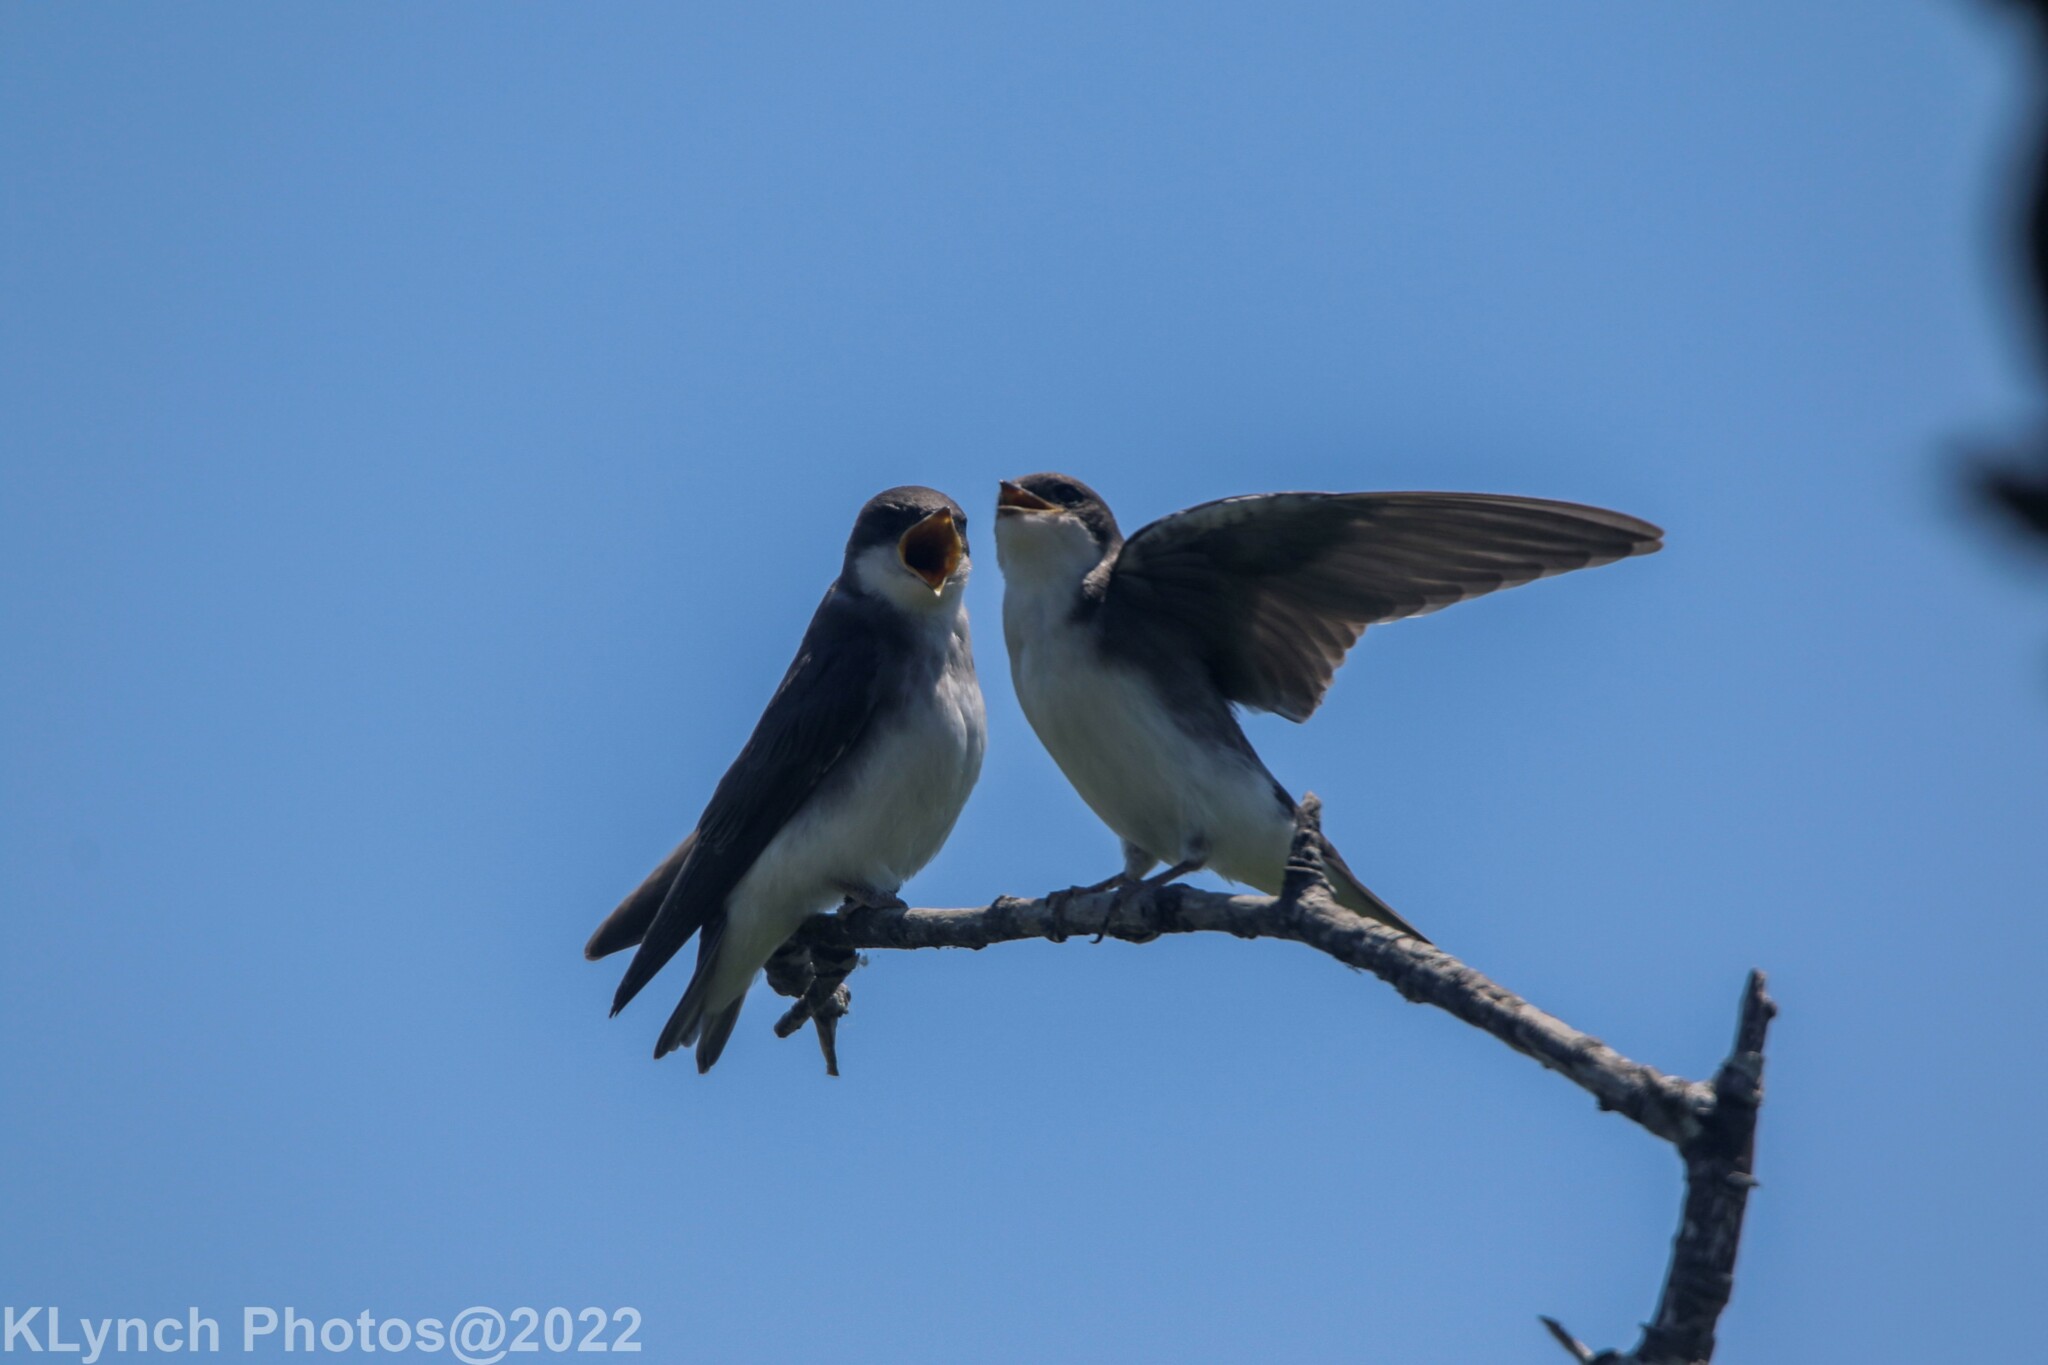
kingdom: Animalia
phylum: Chordata
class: Aves
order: Passeriformes
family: Hirundinidae
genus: Tachycineta
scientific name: Tachycineta bicolor
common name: Tree swallow
